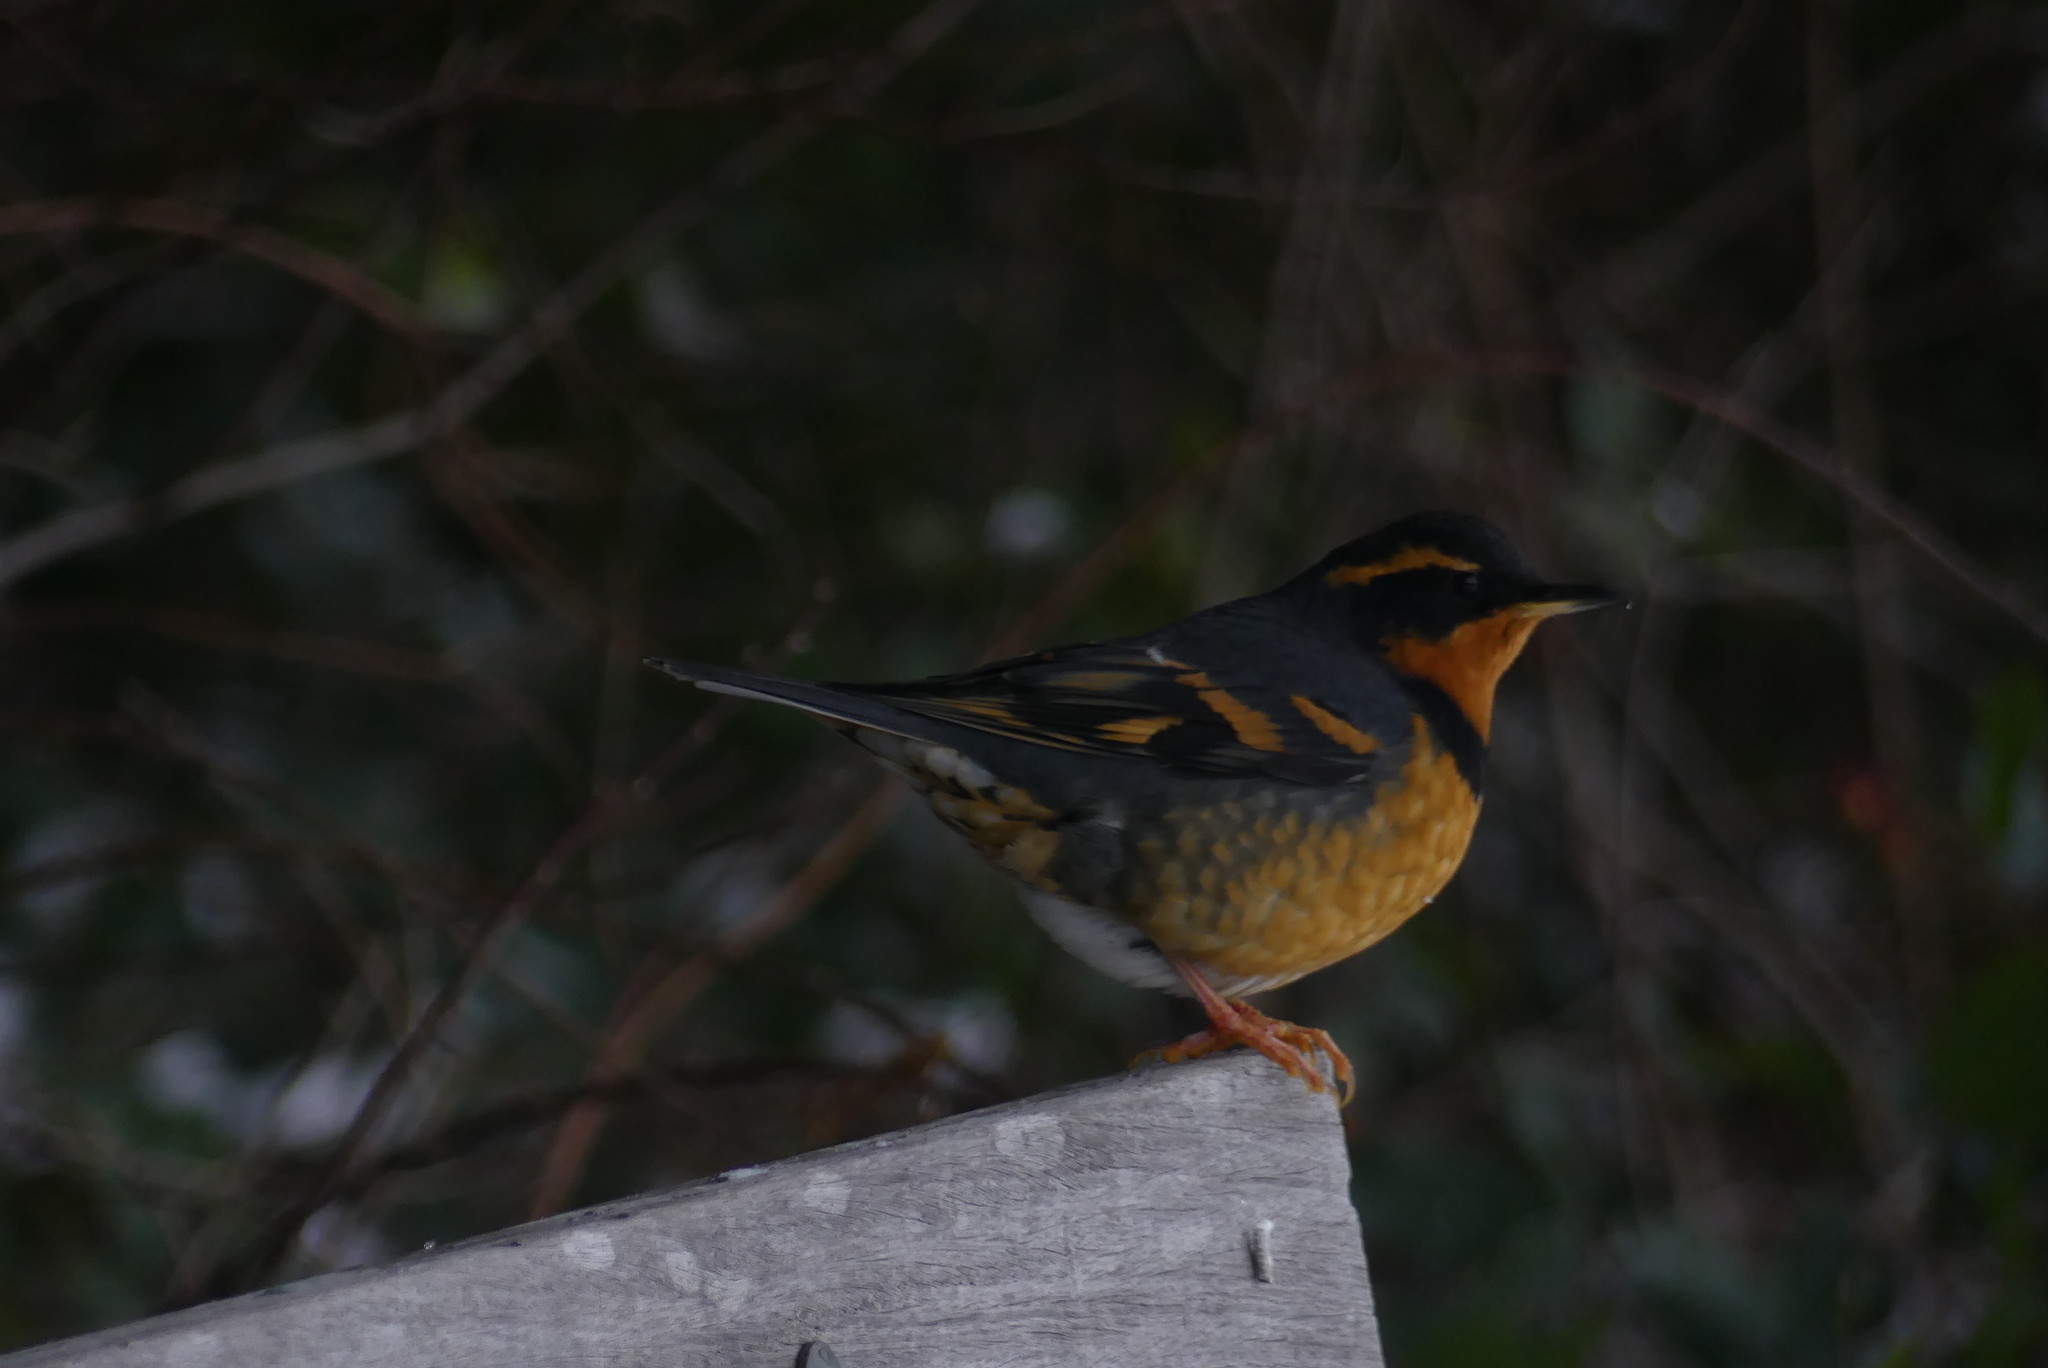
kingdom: Animalia
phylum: Chordata
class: Aves
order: Passeriformes
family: Turdidae
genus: Ixoreus
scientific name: Ixoreus naevius
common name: Varied thrush
